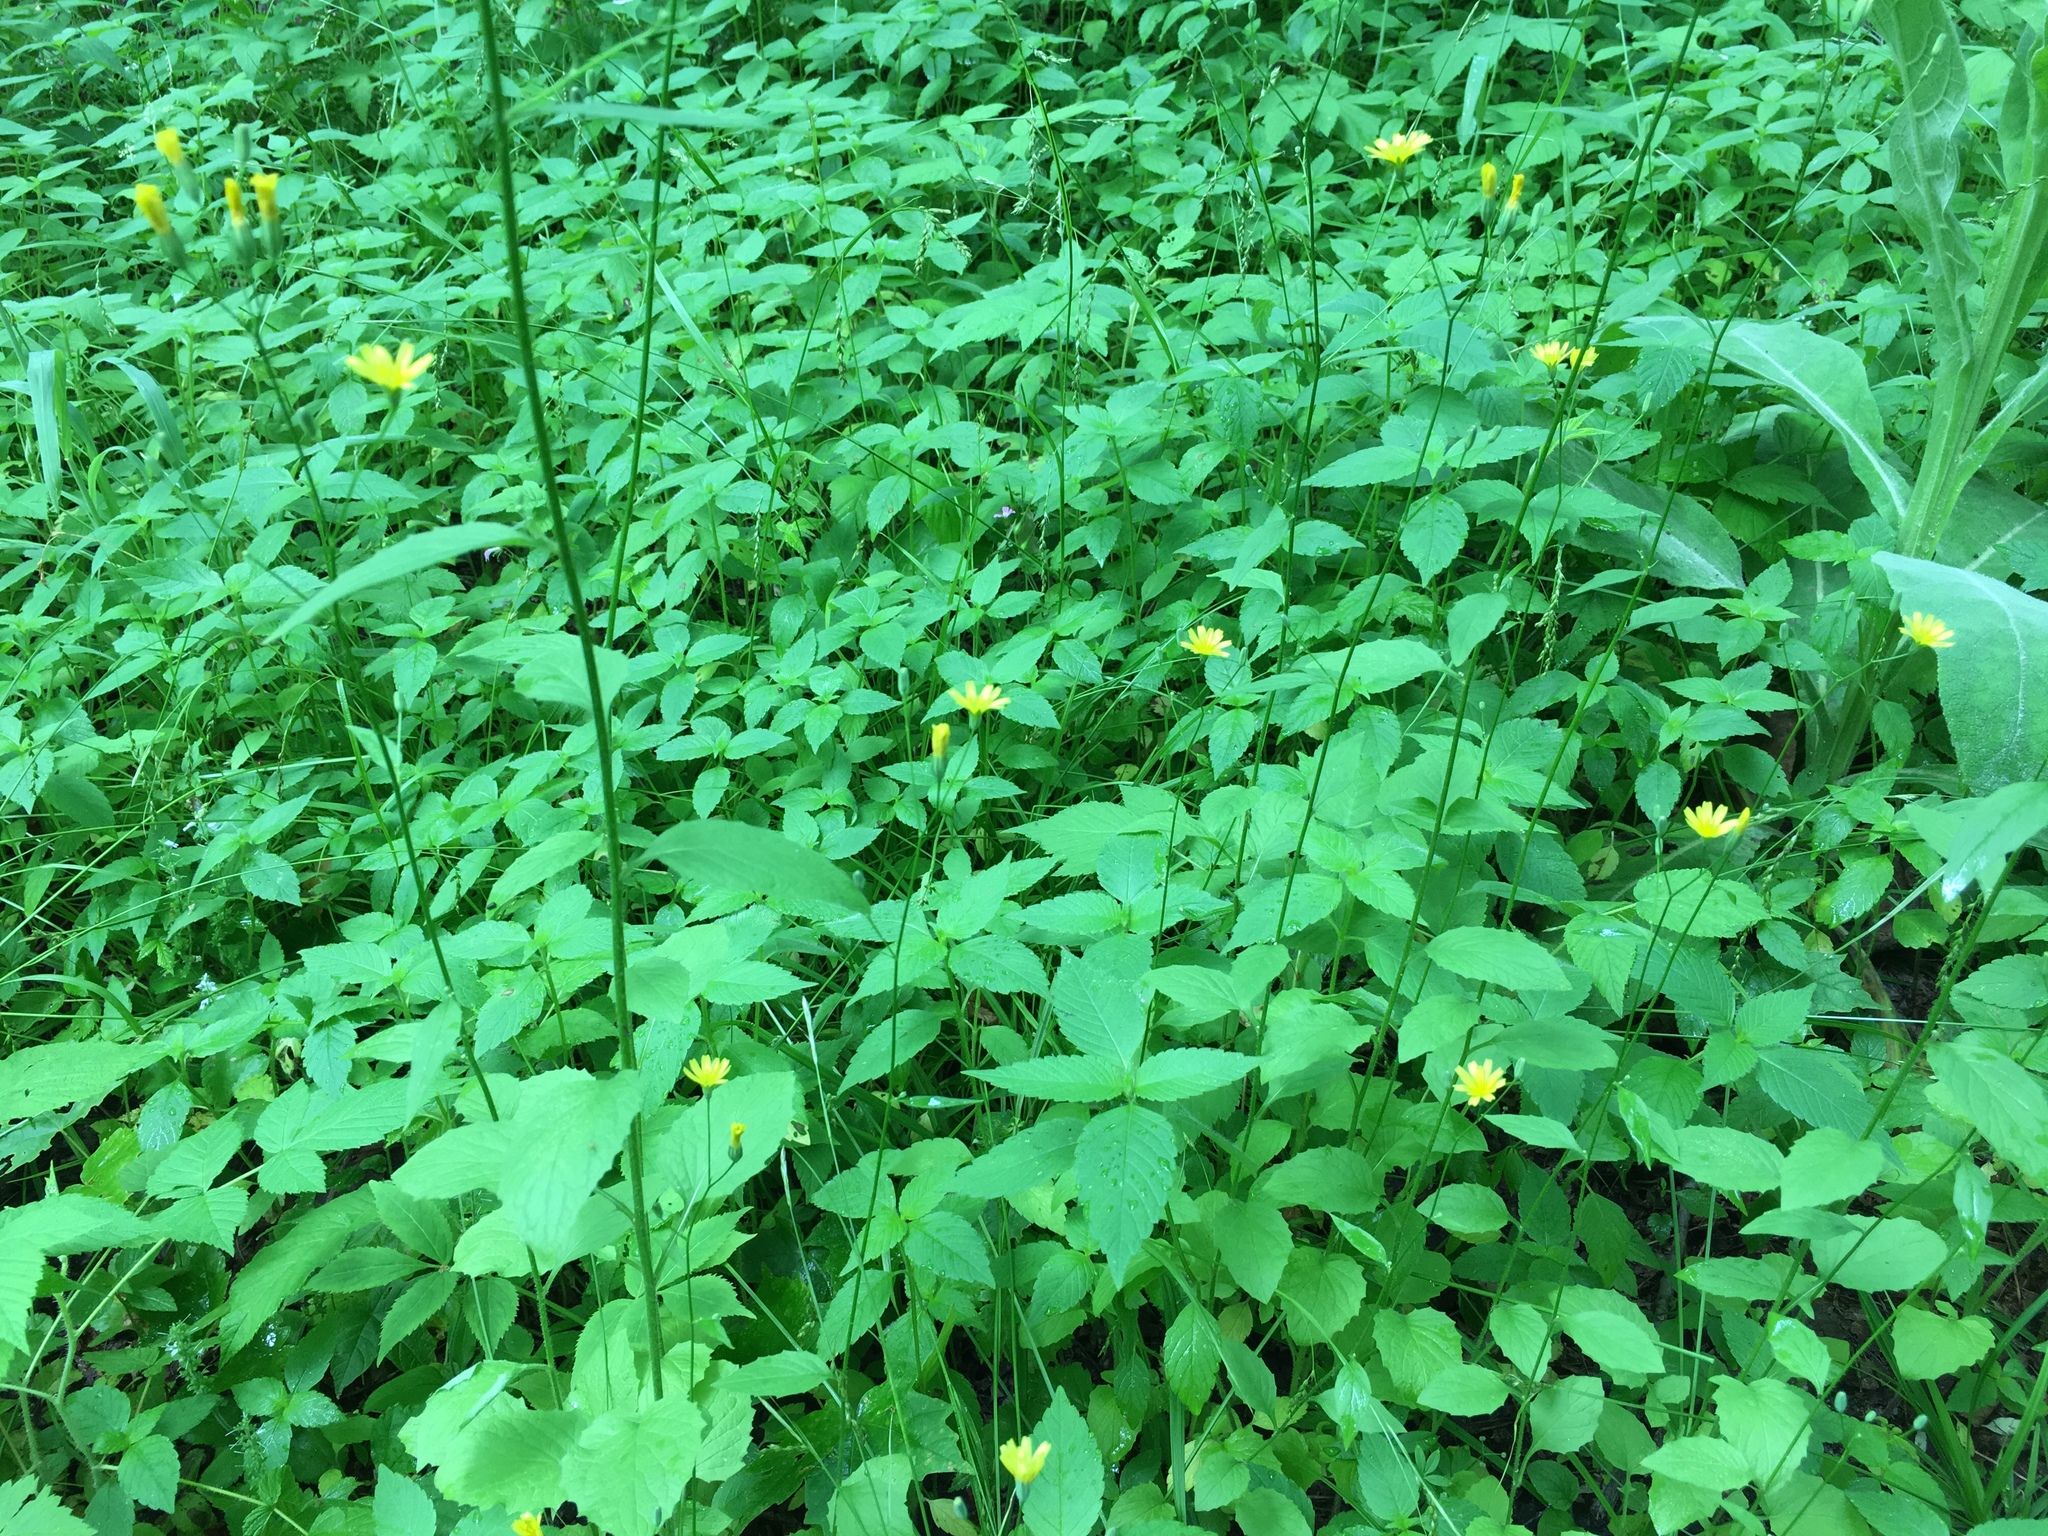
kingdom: Plantae
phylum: Tracheophyta
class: Magnoliopsida
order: Asterales
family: Asteraceae
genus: Lapsana
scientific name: Lapsana communis
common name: Nipplewort
